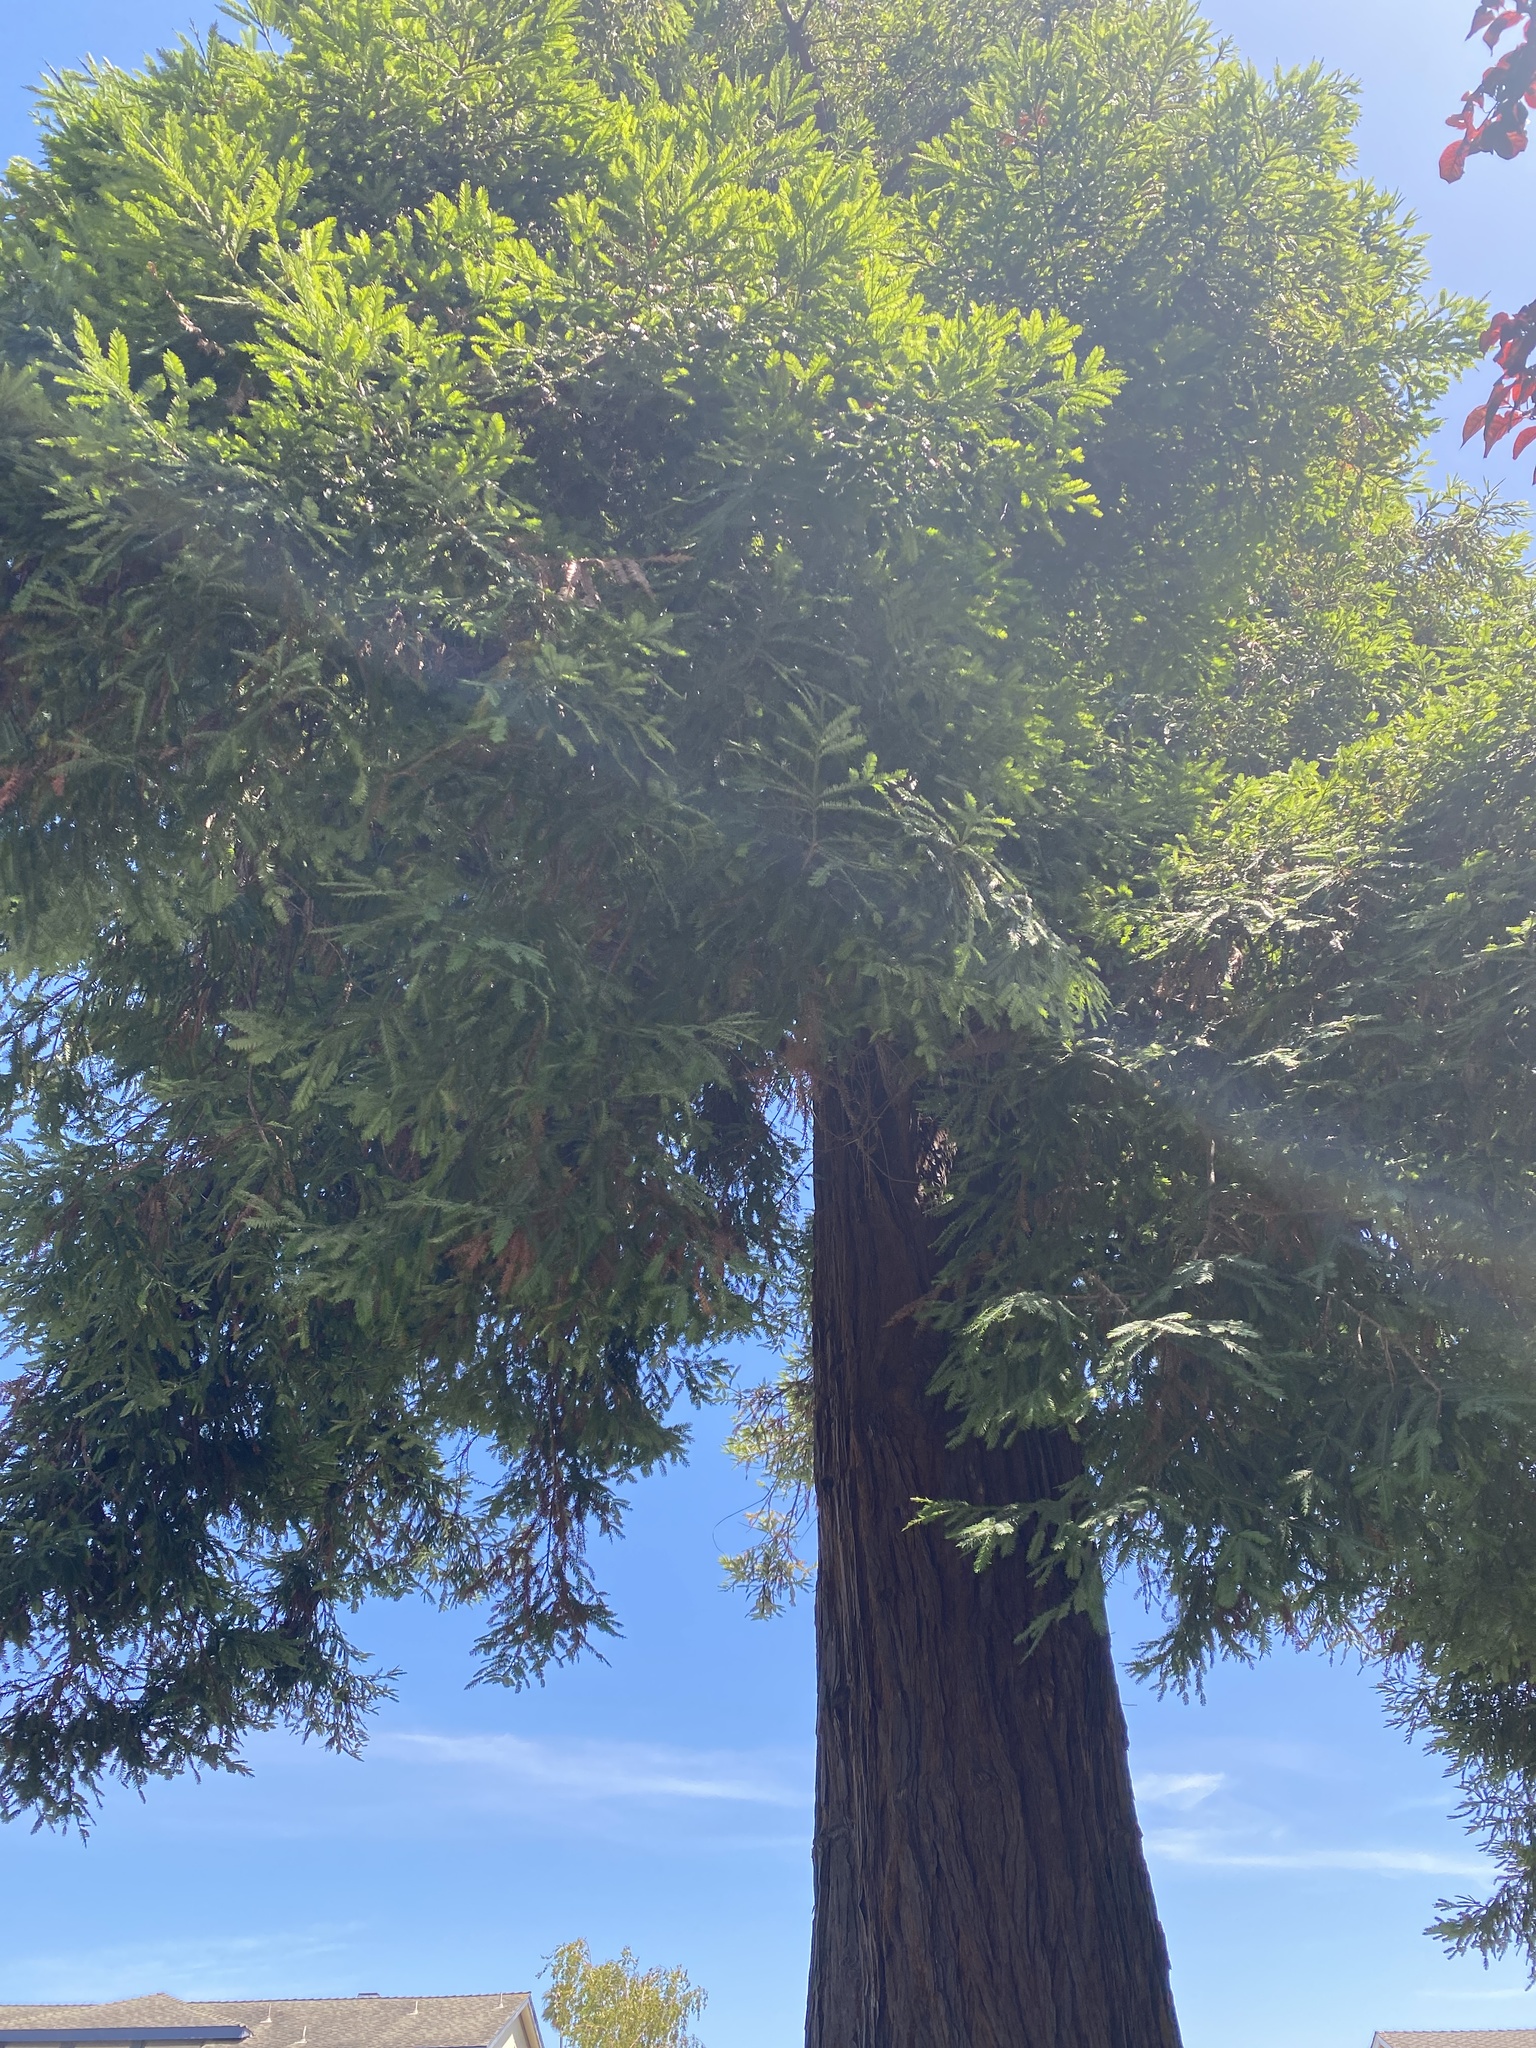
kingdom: Plantae
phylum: Tracheophyta
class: Pinopsida
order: Pinales
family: Cupressaceae
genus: Sequoia
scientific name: Sequoia sempervirens
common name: Coast redwood
